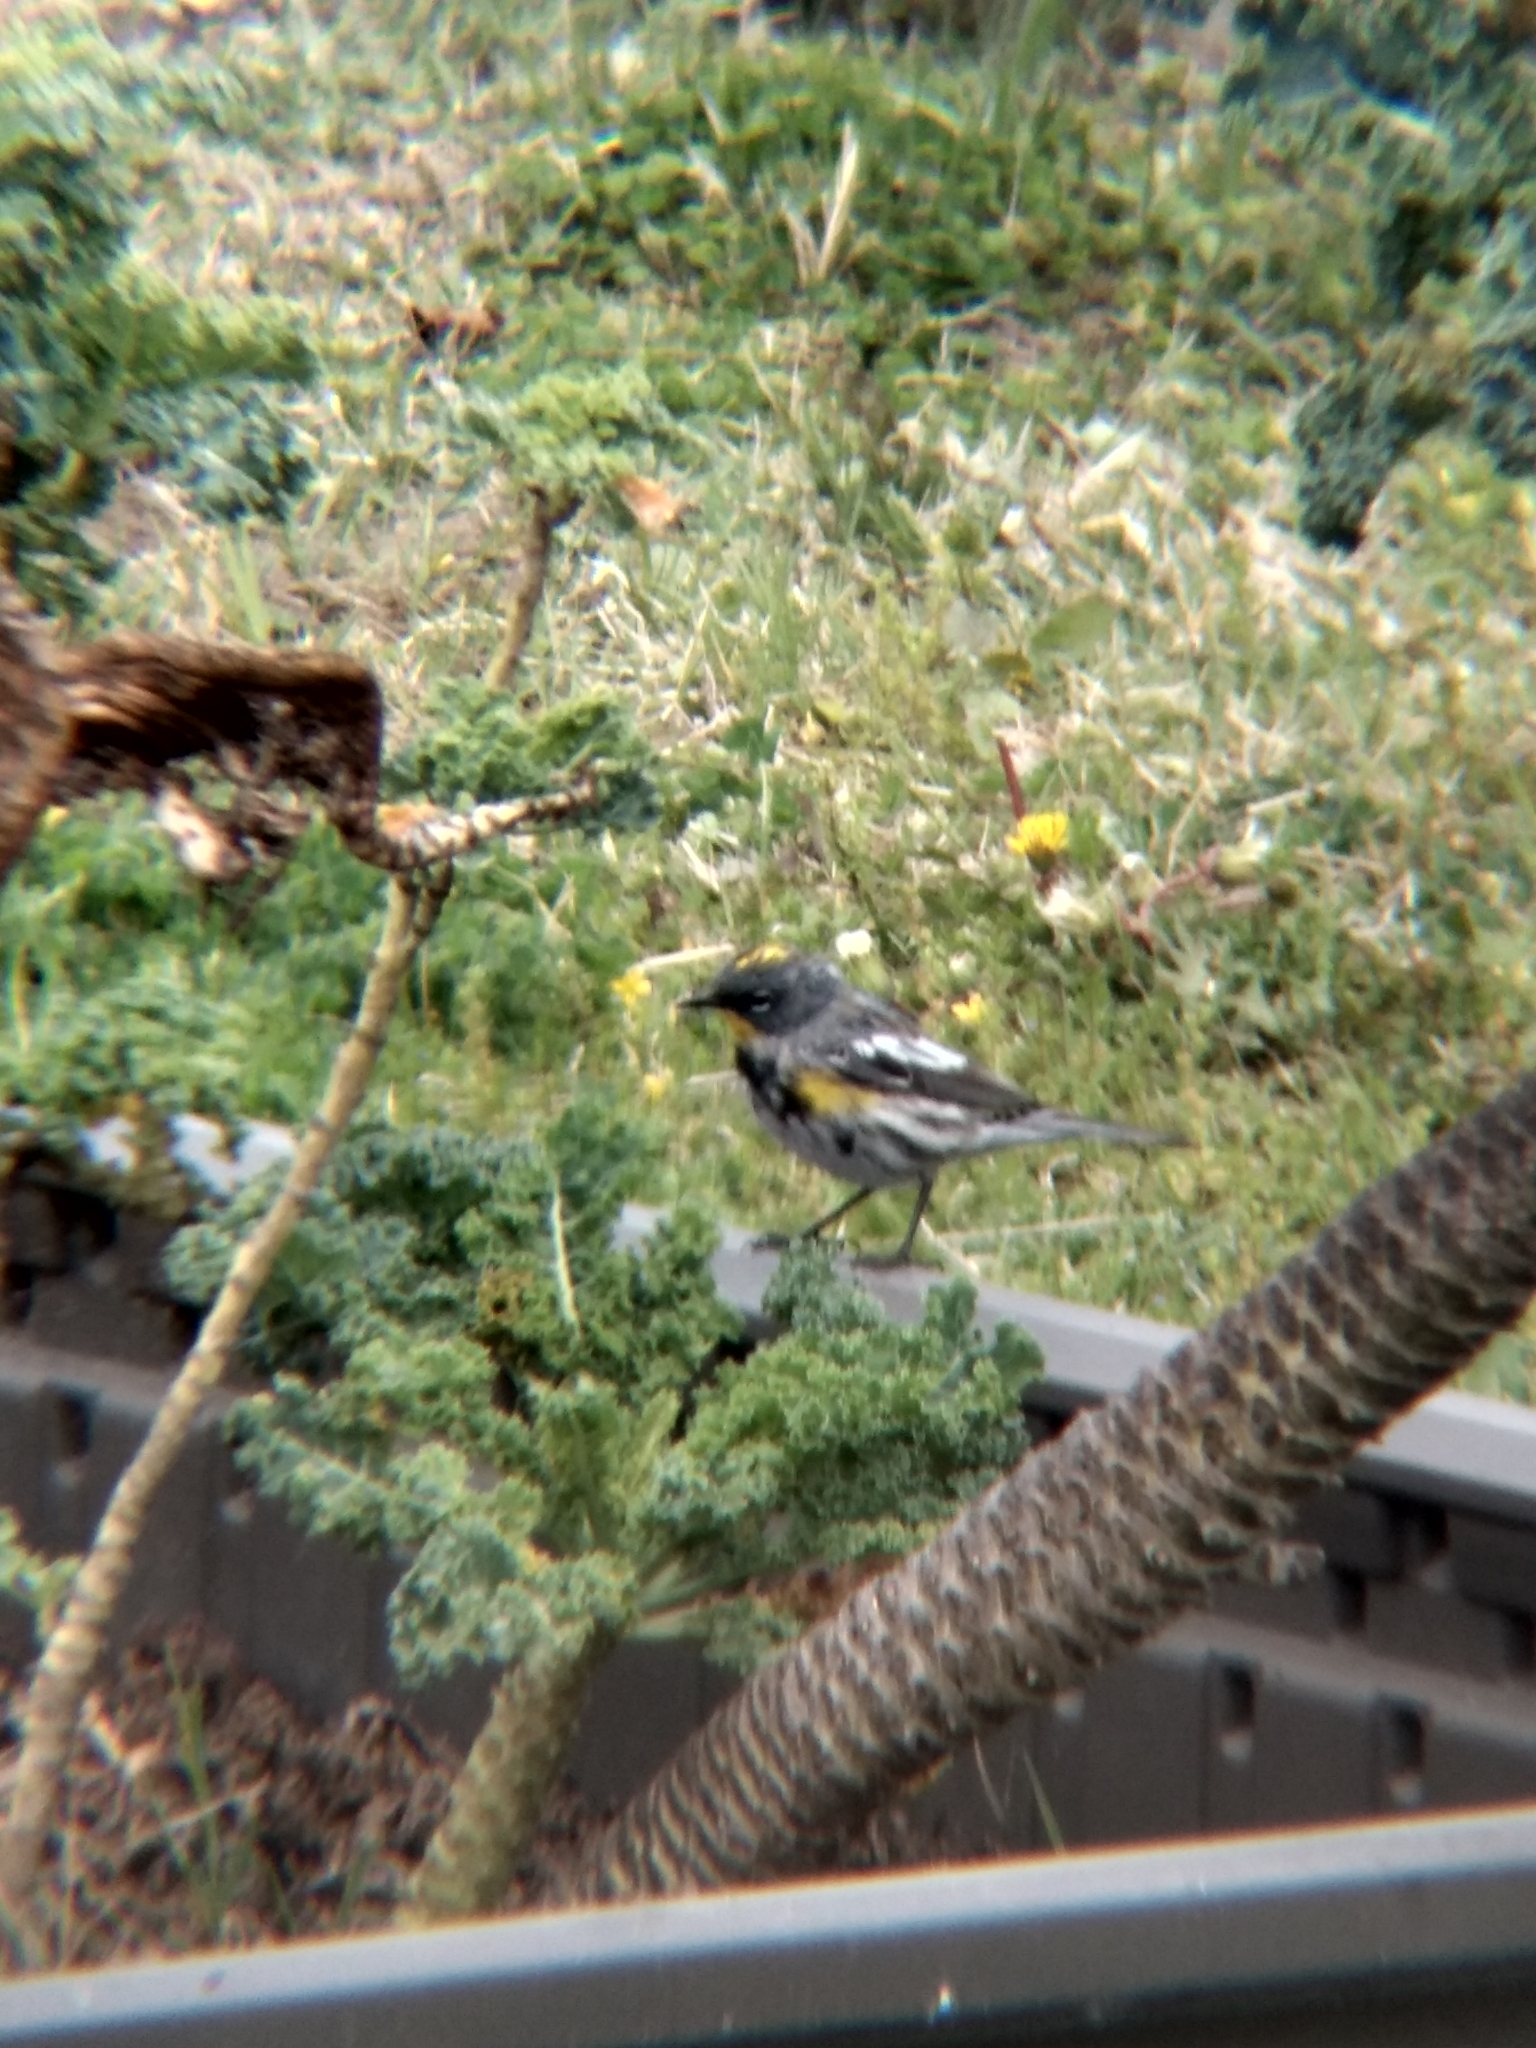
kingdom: Animalia
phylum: Chordata
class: Aves
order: Passeriformes
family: Parulidae
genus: Setophaga
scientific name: Setophaga coronata
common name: Myrtle warbler
